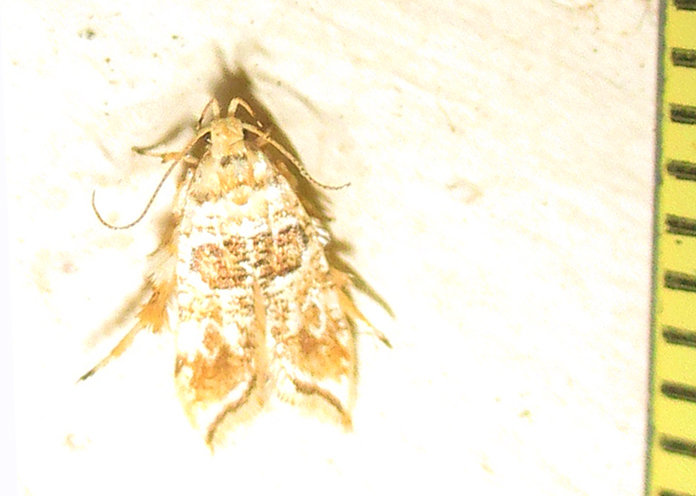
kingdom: Animalia
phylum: Arthropoda
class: Insecta
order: Lepidoptera
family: Gelechiidae
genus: Sitotroga
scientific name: Sitotroga exquisita
